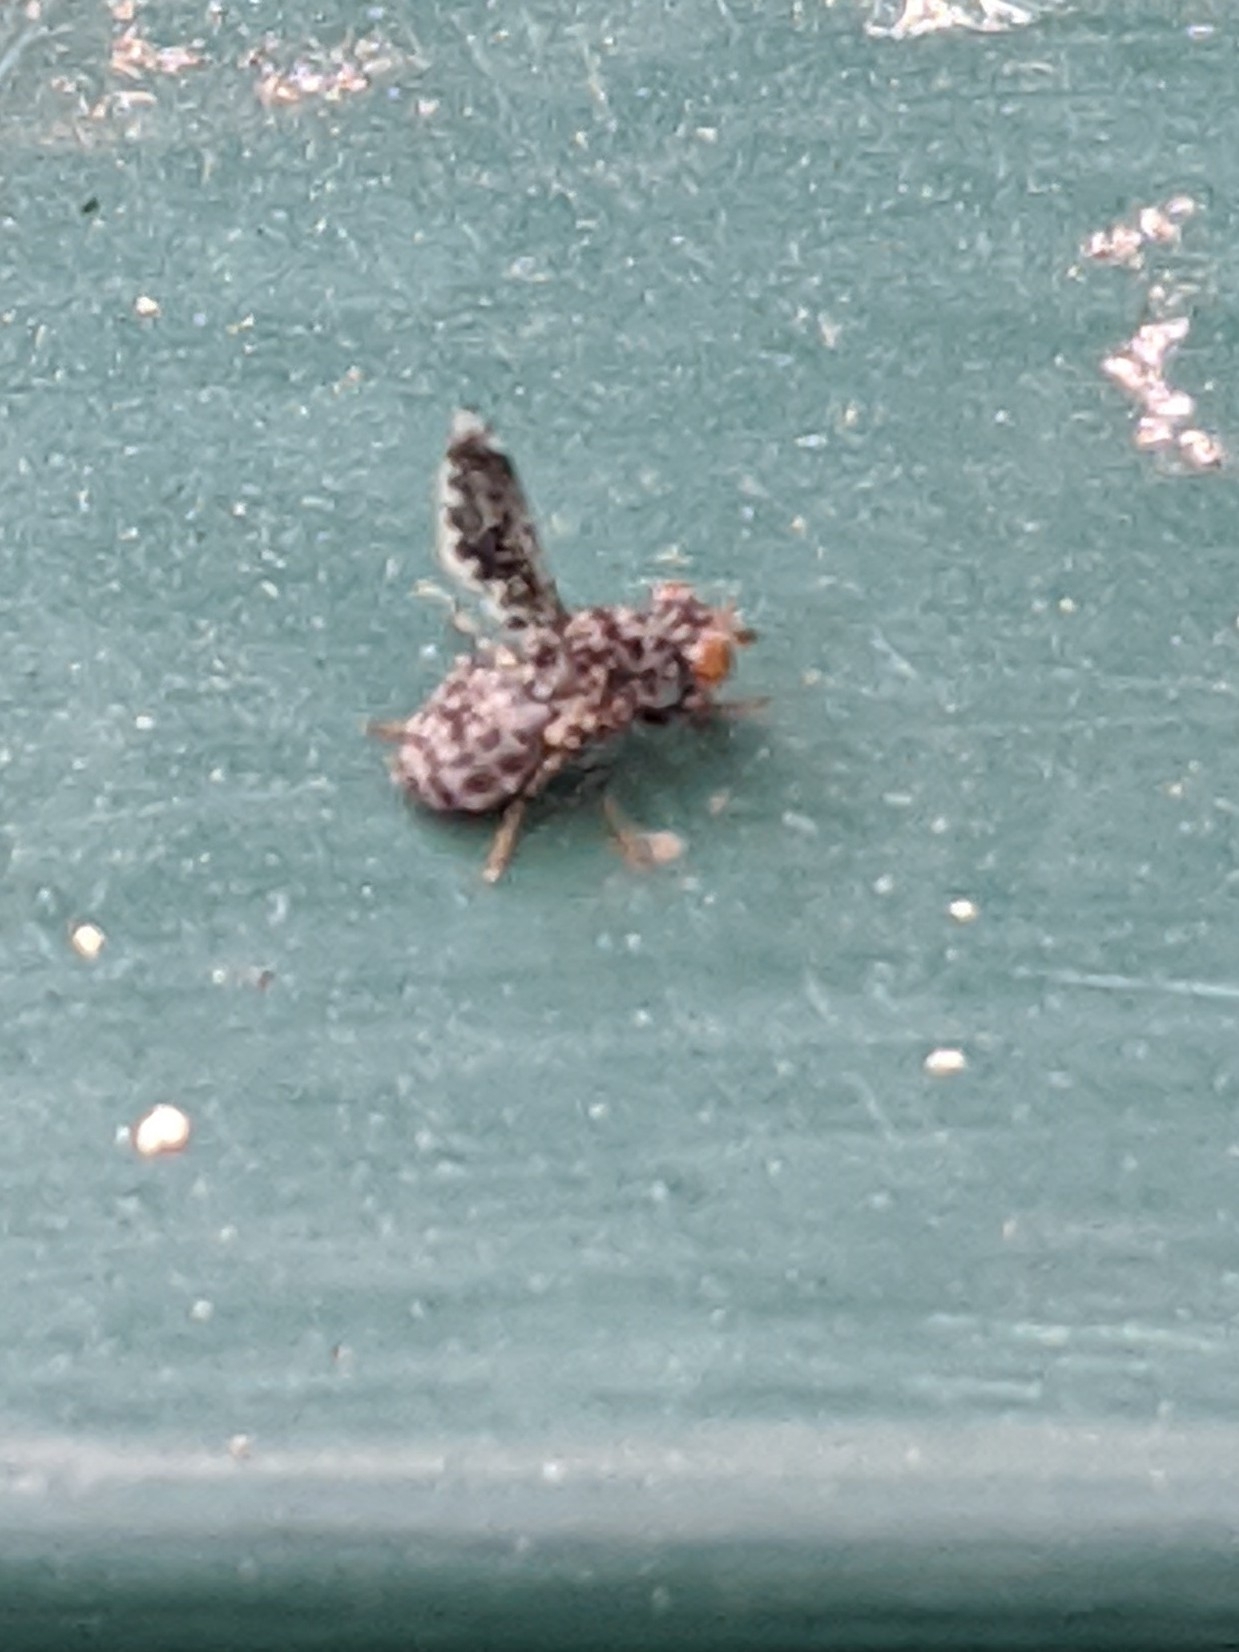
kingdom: Animalia
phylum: Arthropoda
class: Insecta
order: Diptera
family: Ulidiidae
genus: Callopistromyia
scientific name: Callopistromyia annulipes
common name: Peacock fly
